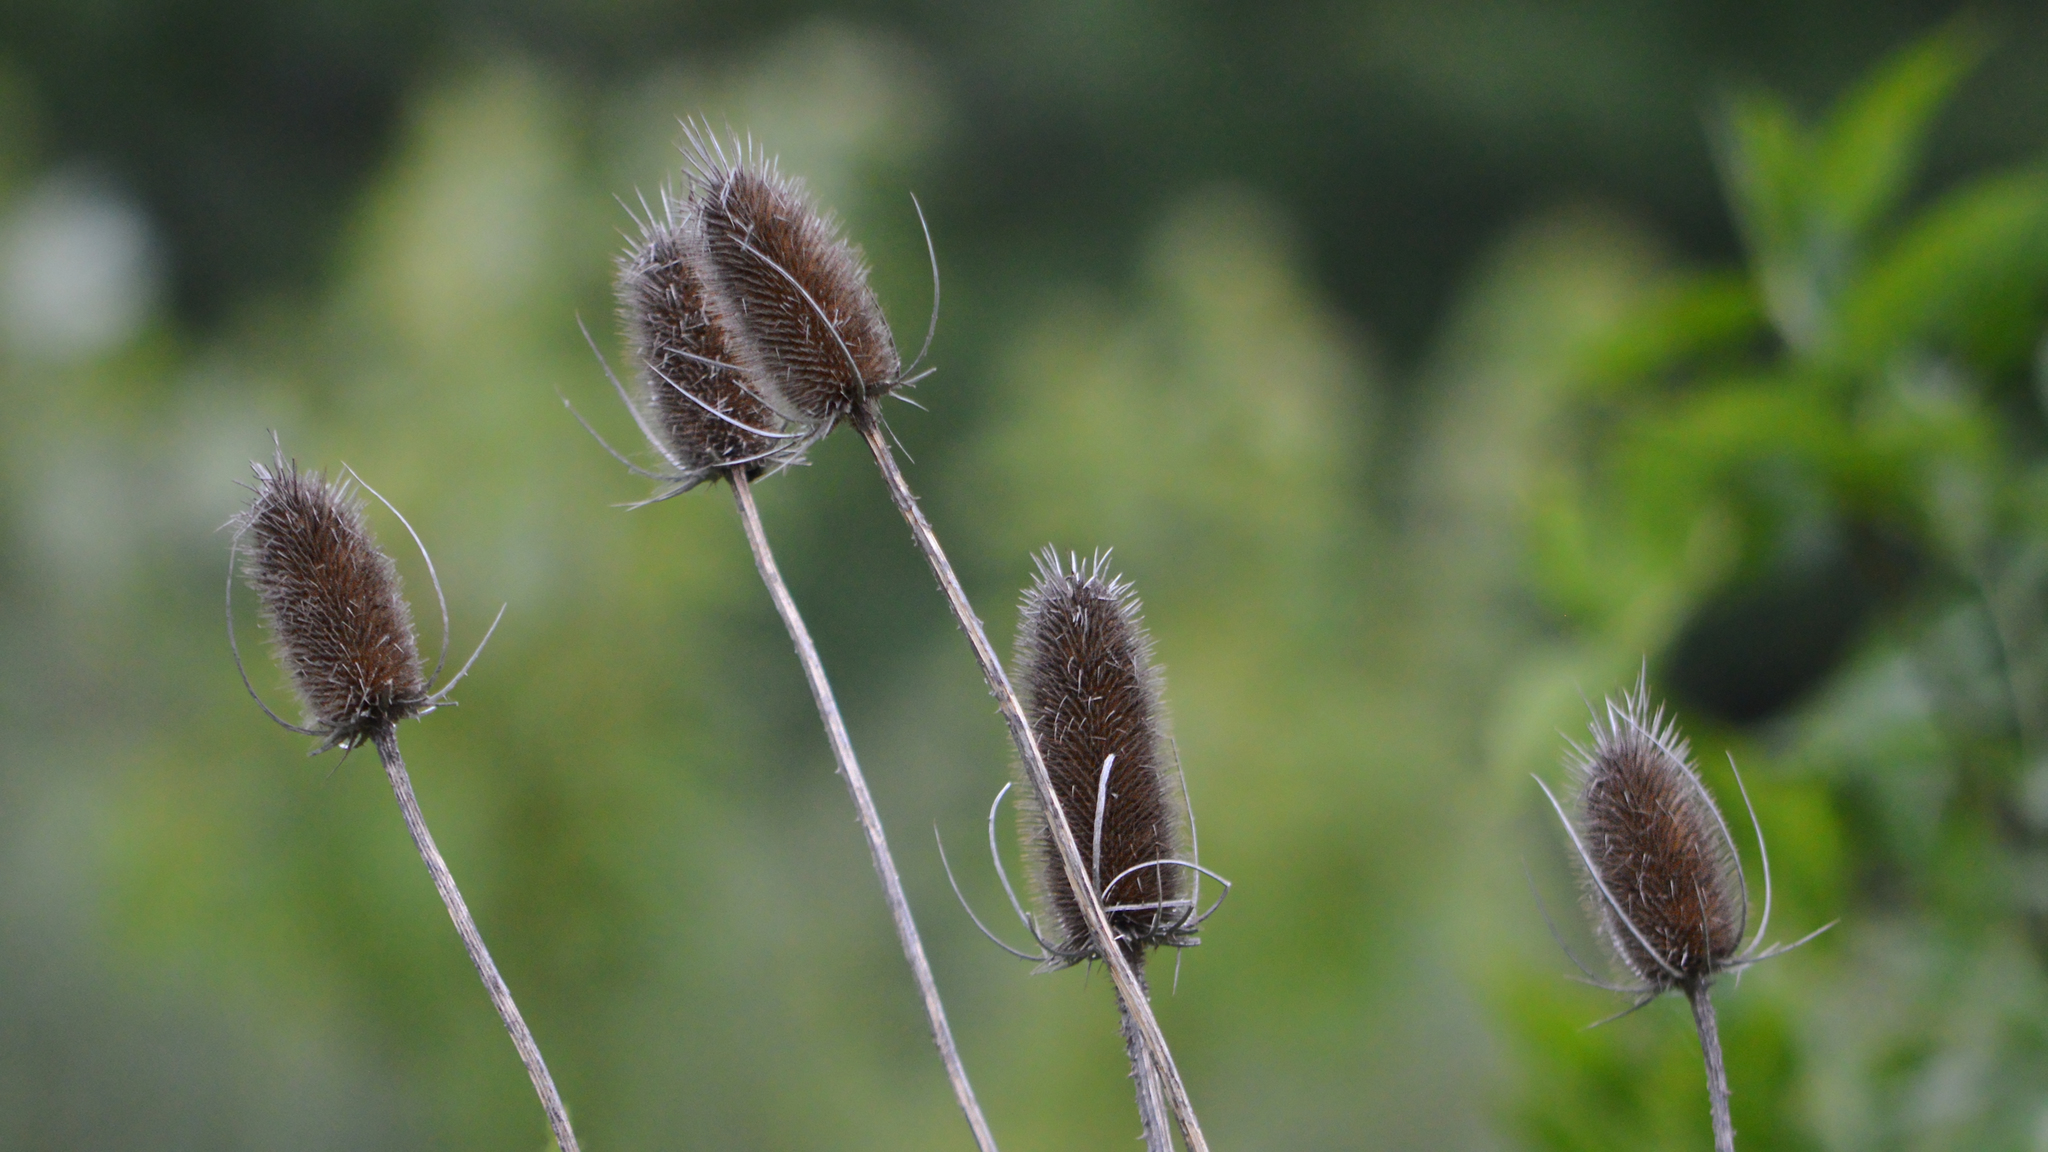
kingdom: Plantae
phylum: Tracheophyta
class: Magnoliopsida
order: Dipsacales
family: Caprifoliaceae
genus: Dipsacus
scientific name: Dipsacus fullonum
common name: Teasel
